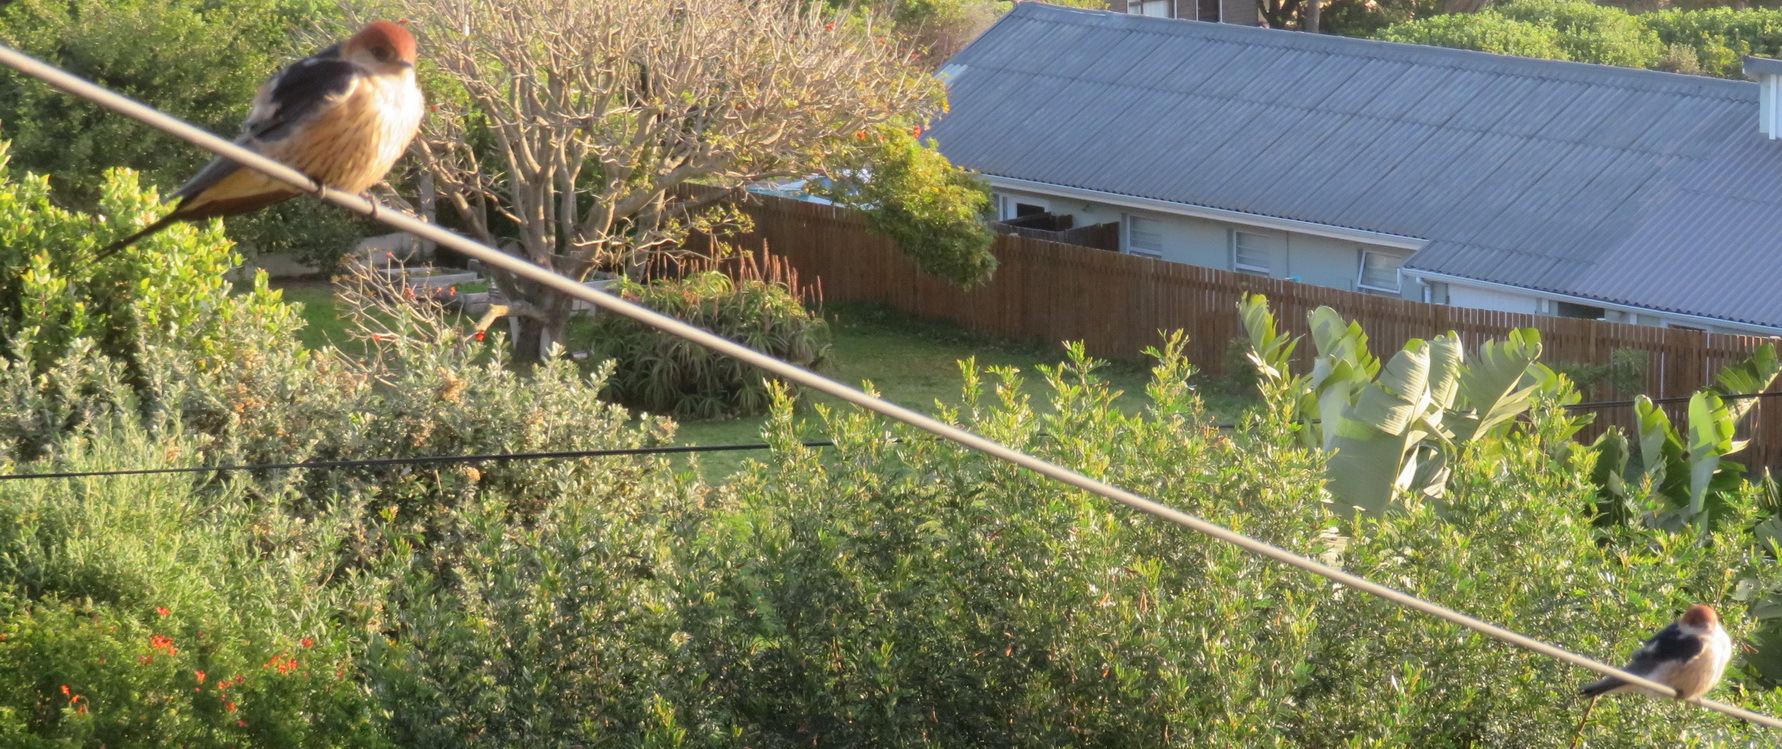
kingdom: Animalia
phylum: Chordata
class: Aves
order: Passeriformes
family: Hirundinidae
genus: Cecropis
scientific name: Cecropis cucullata
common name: Greater striped-swallow
